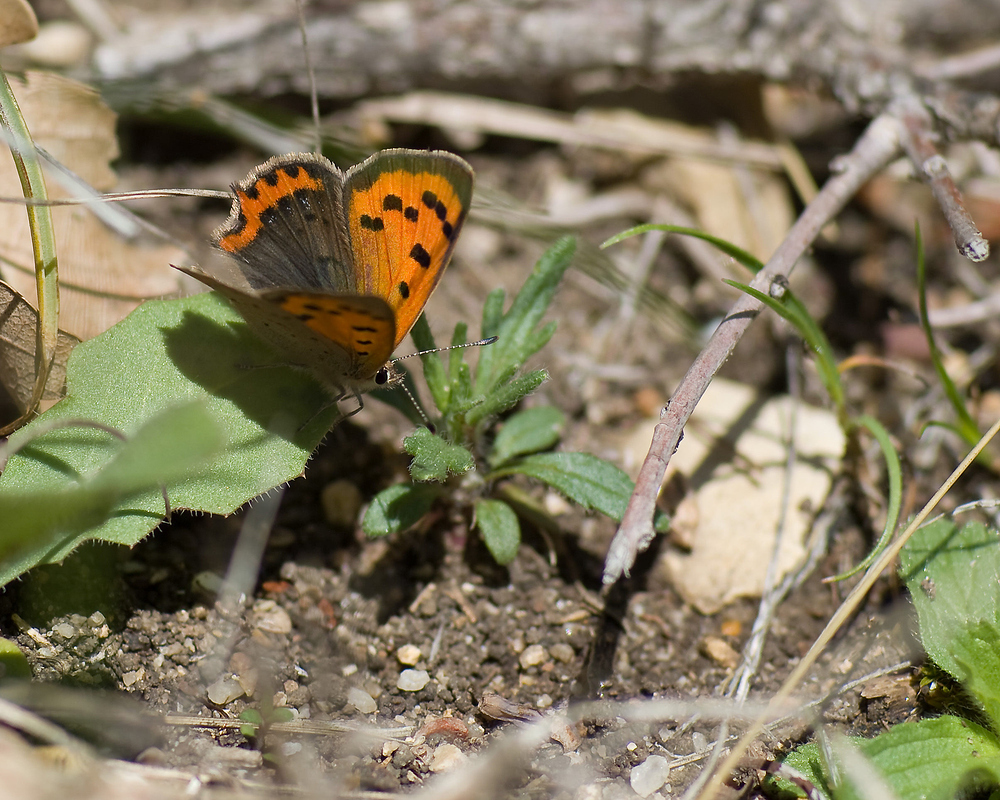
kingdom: Animalia
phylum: Arthropoda
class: Insecta
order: Lepidoptera
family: Lycaenidae
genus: Lycaena
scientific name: Lycaena phlaeas
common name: Small copper
